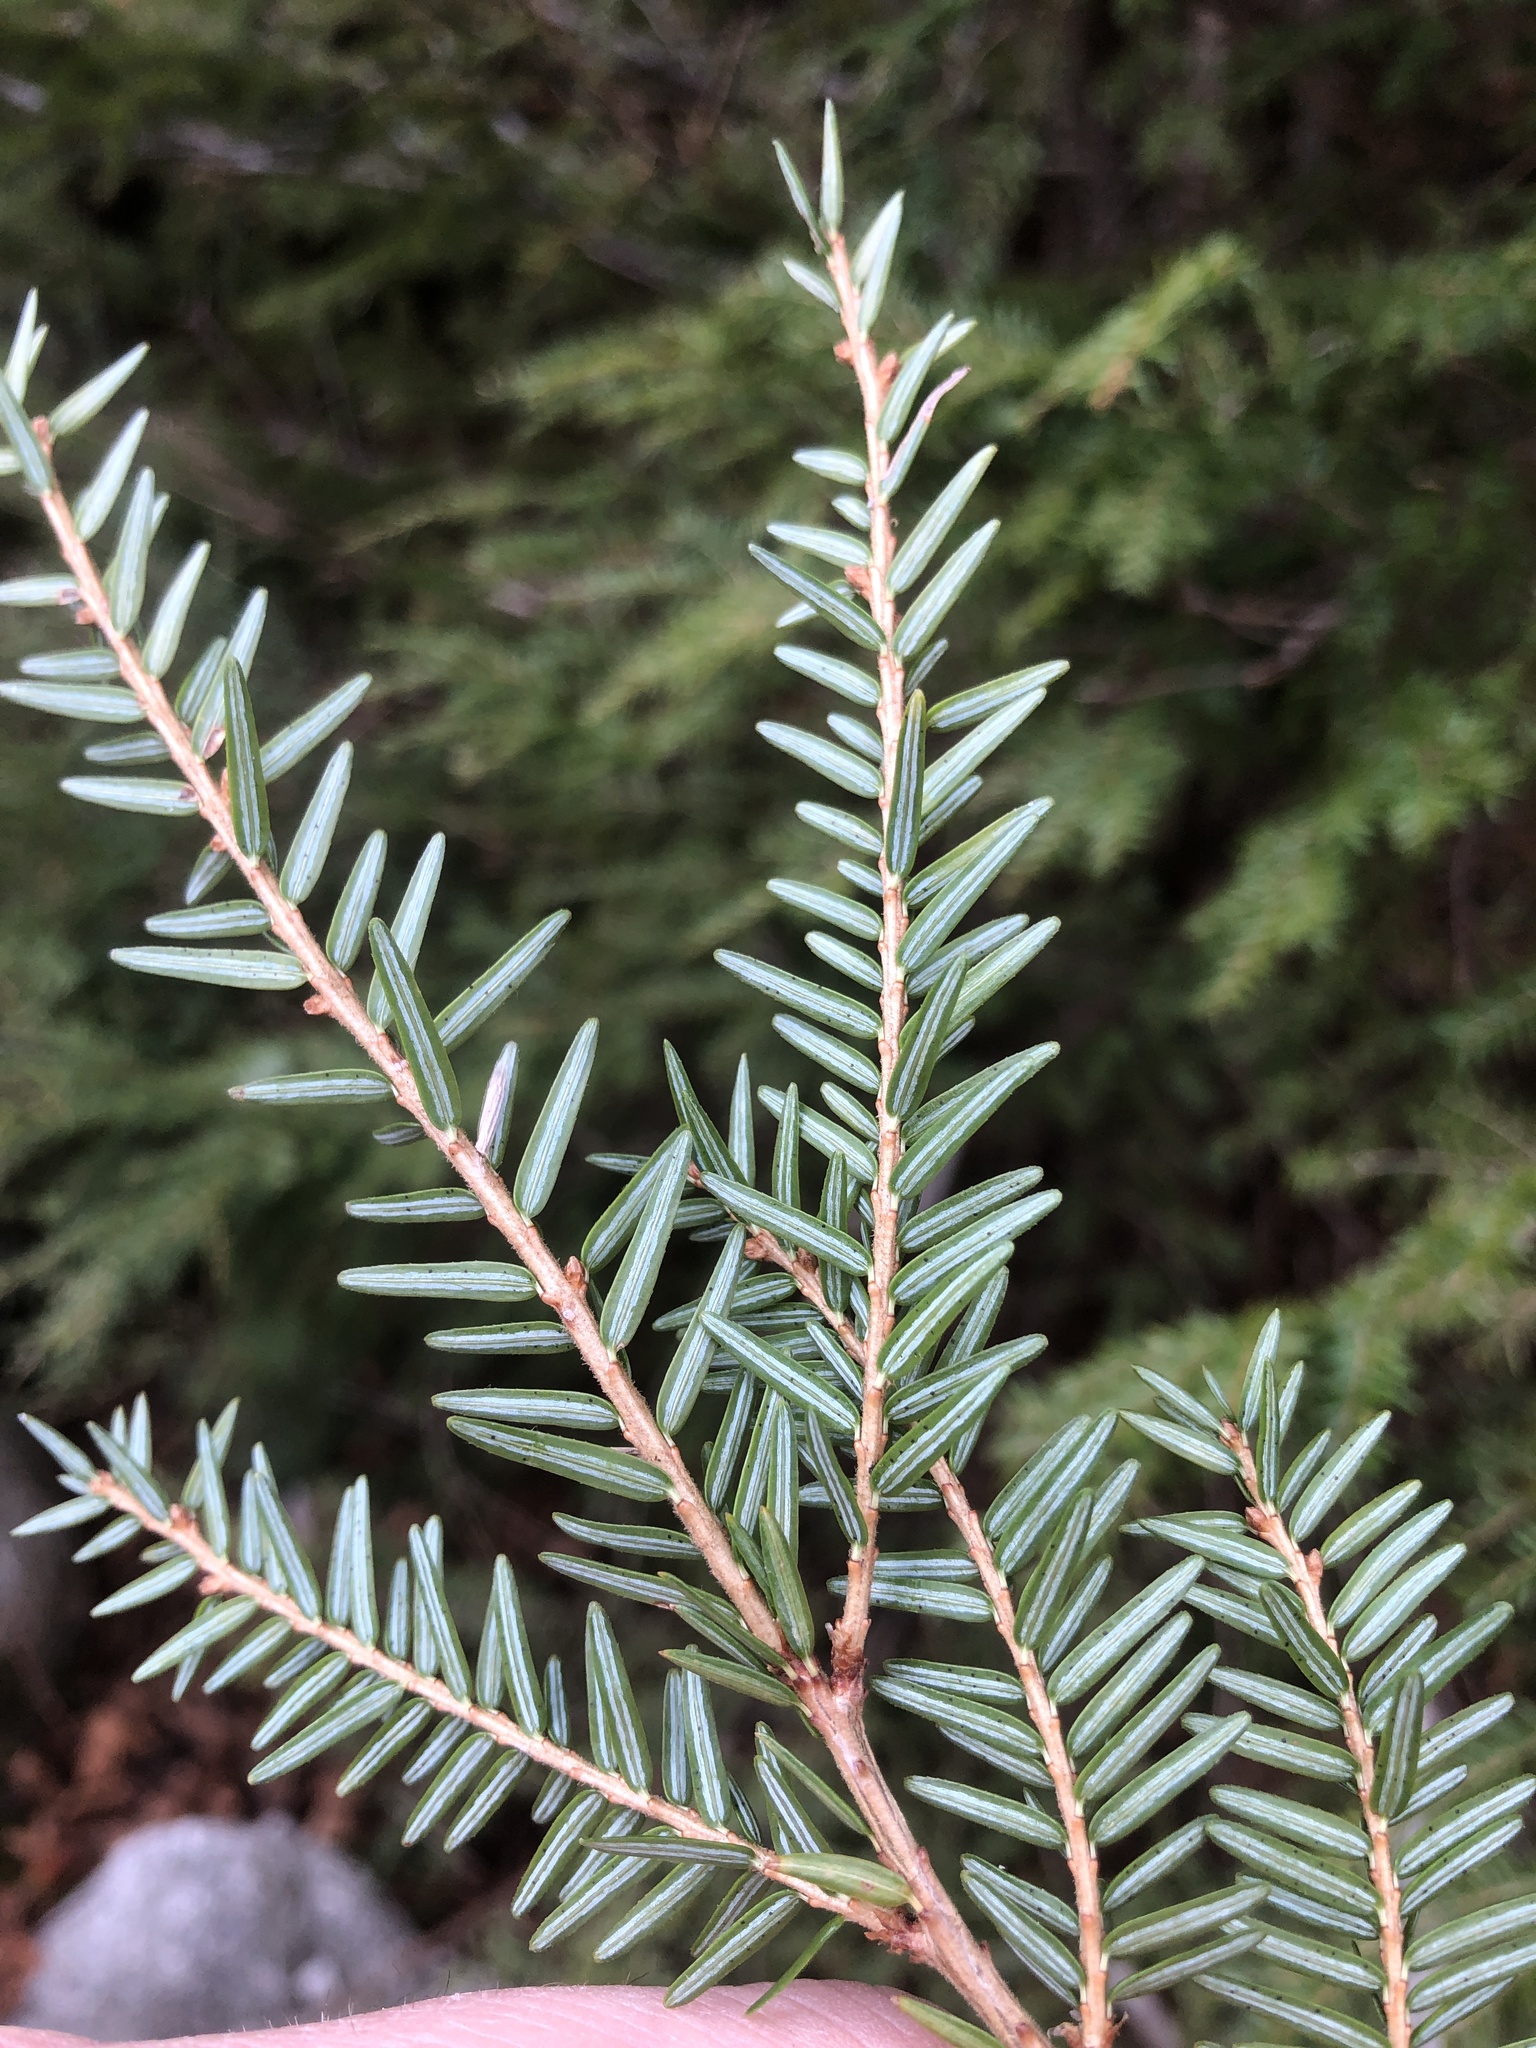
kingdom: Plantae
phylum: Tracheophyta
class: Pinopsida
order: Pinales
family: Pinaceae
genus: Tsuga
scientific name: Tsuga canadensis
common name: Eastern hemlock
